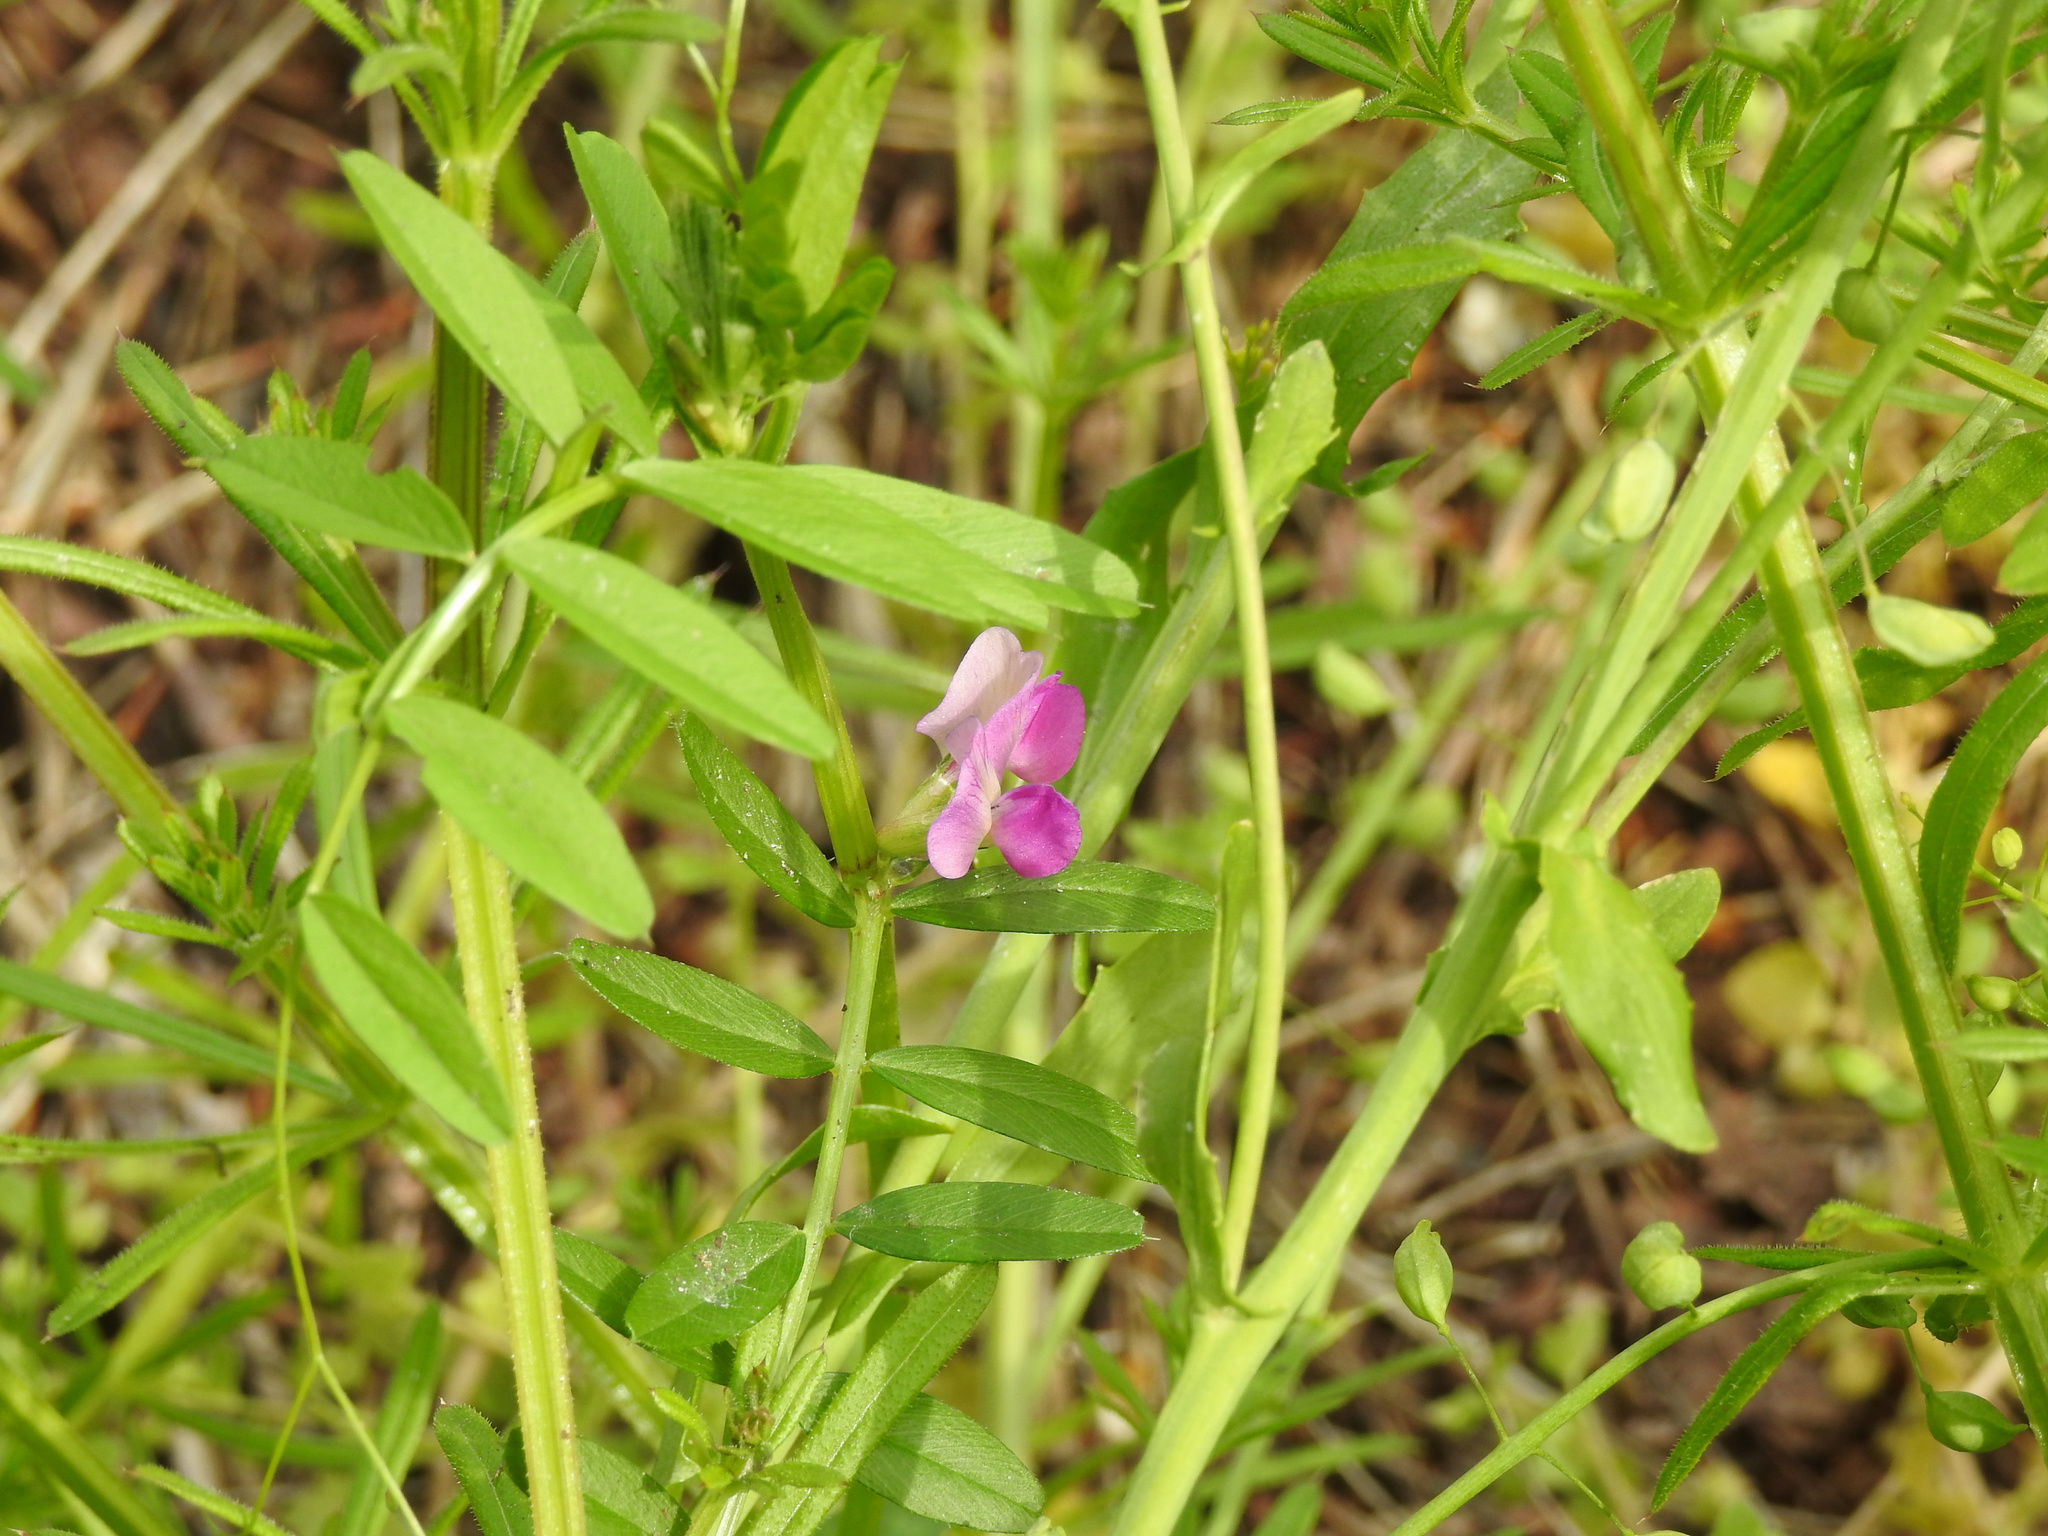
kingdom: Plantae
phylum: Tracheophyta
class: Magnoliopsida
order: Fabales
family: Fabaceae
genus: Vicia
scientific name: Vicia sativa
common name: Garden vetch
